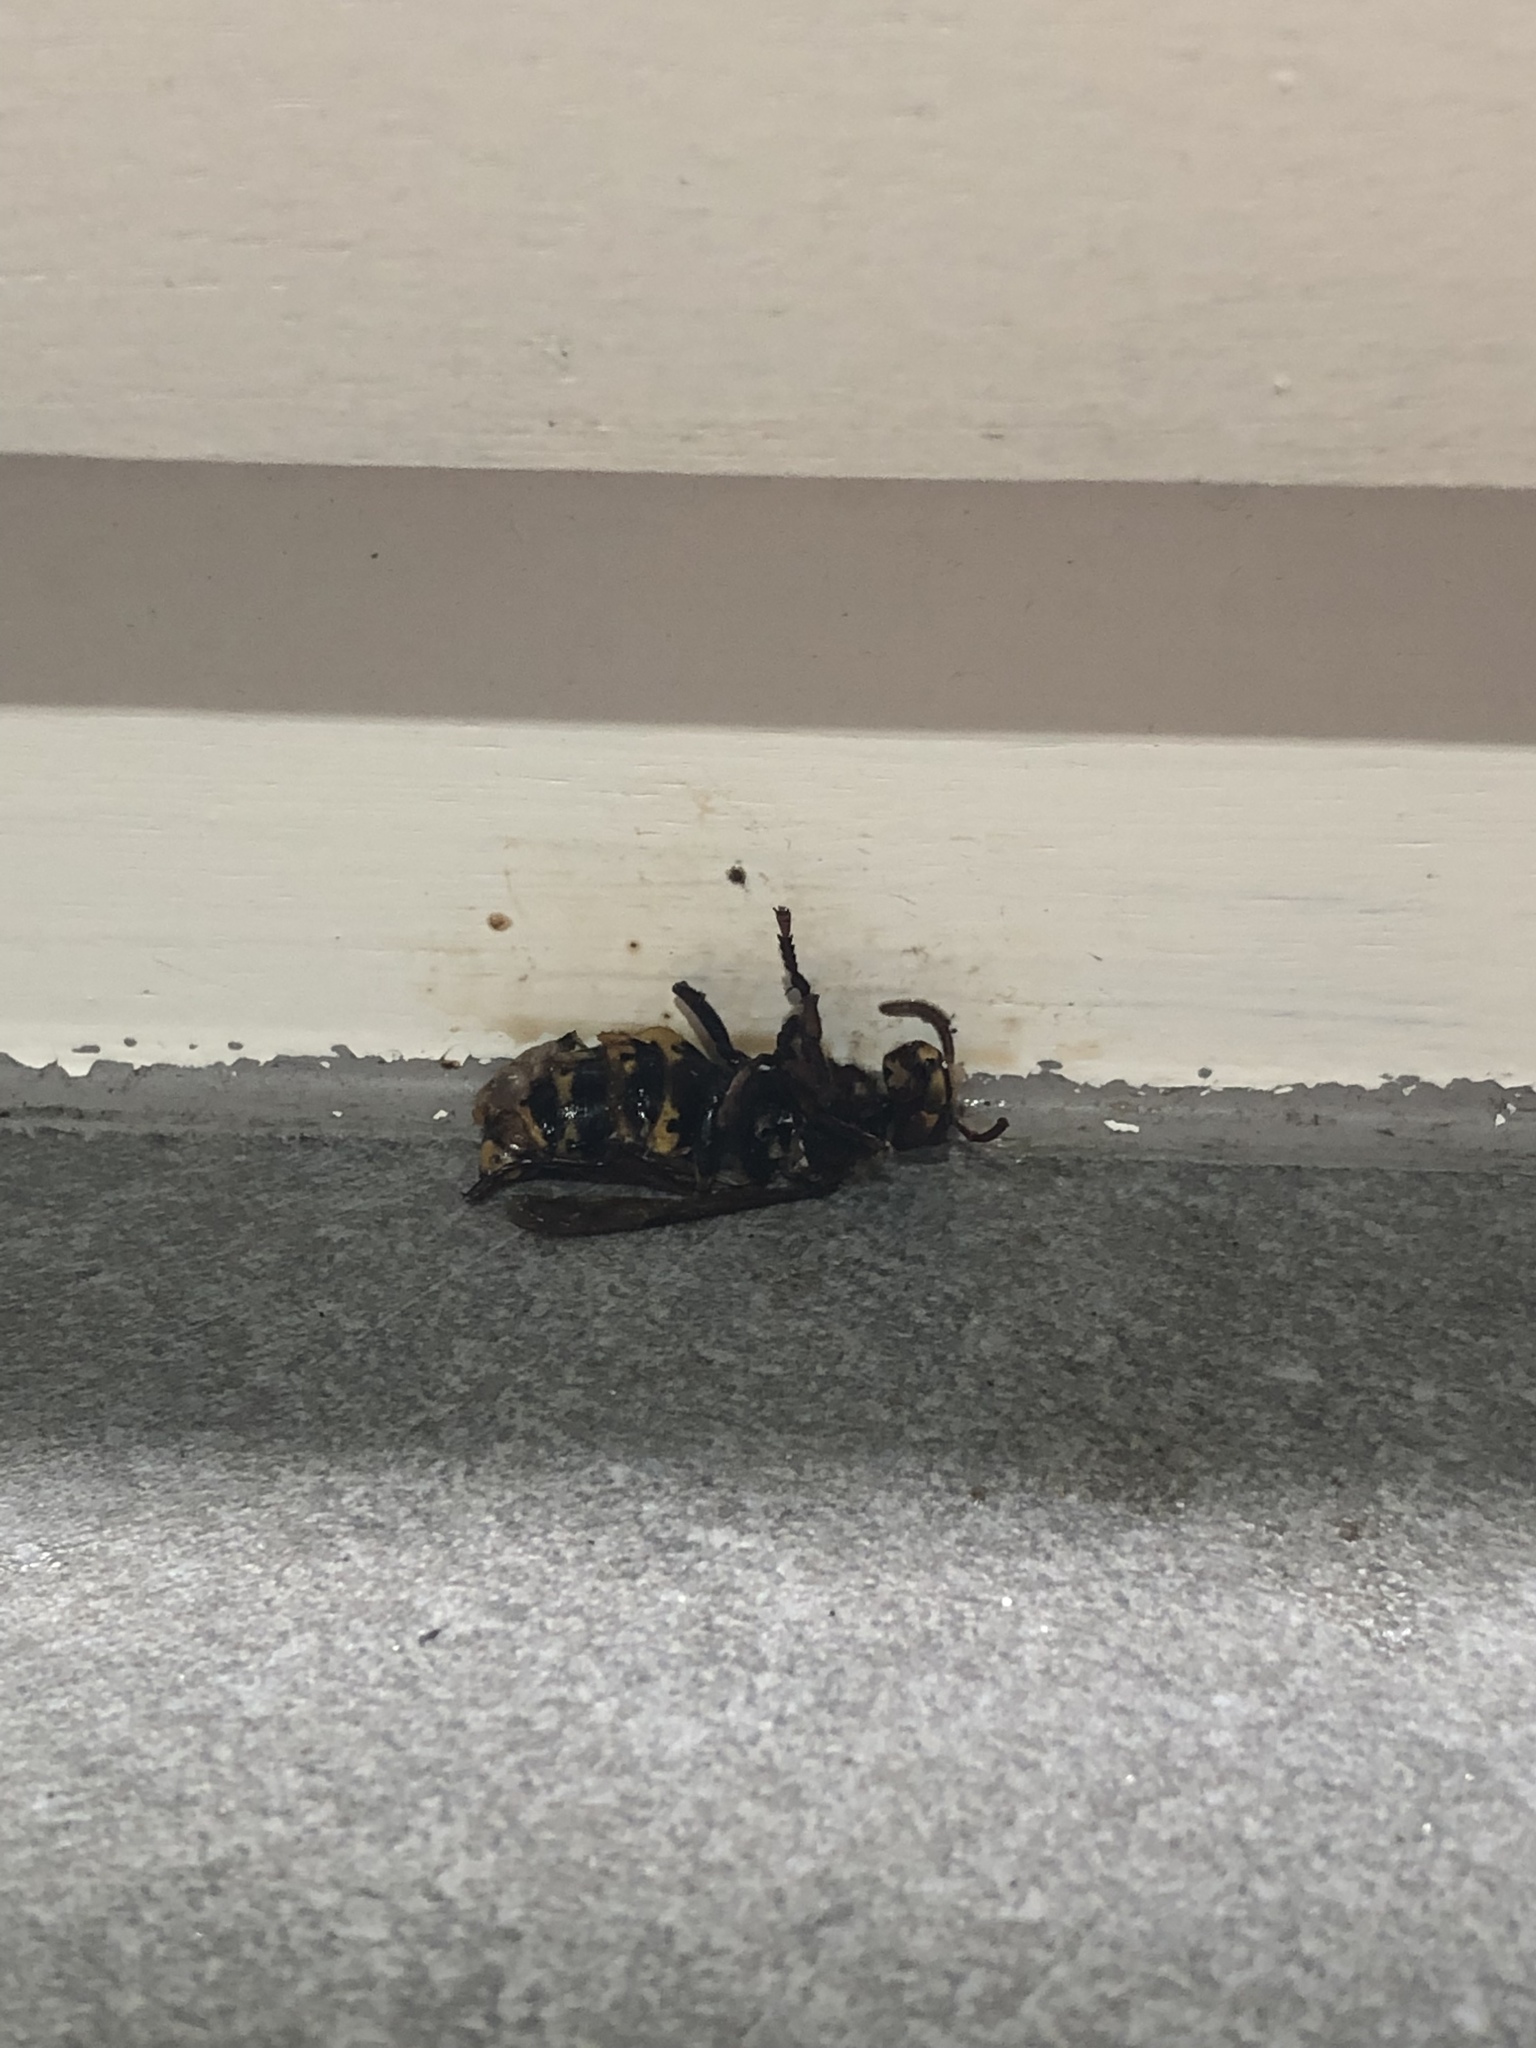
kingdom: Animalia
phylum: Arthropoda
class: Insecta
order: Hymenoptera
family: Vespidae
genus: Vespa
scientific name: Vespa crabro
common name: Hornet
